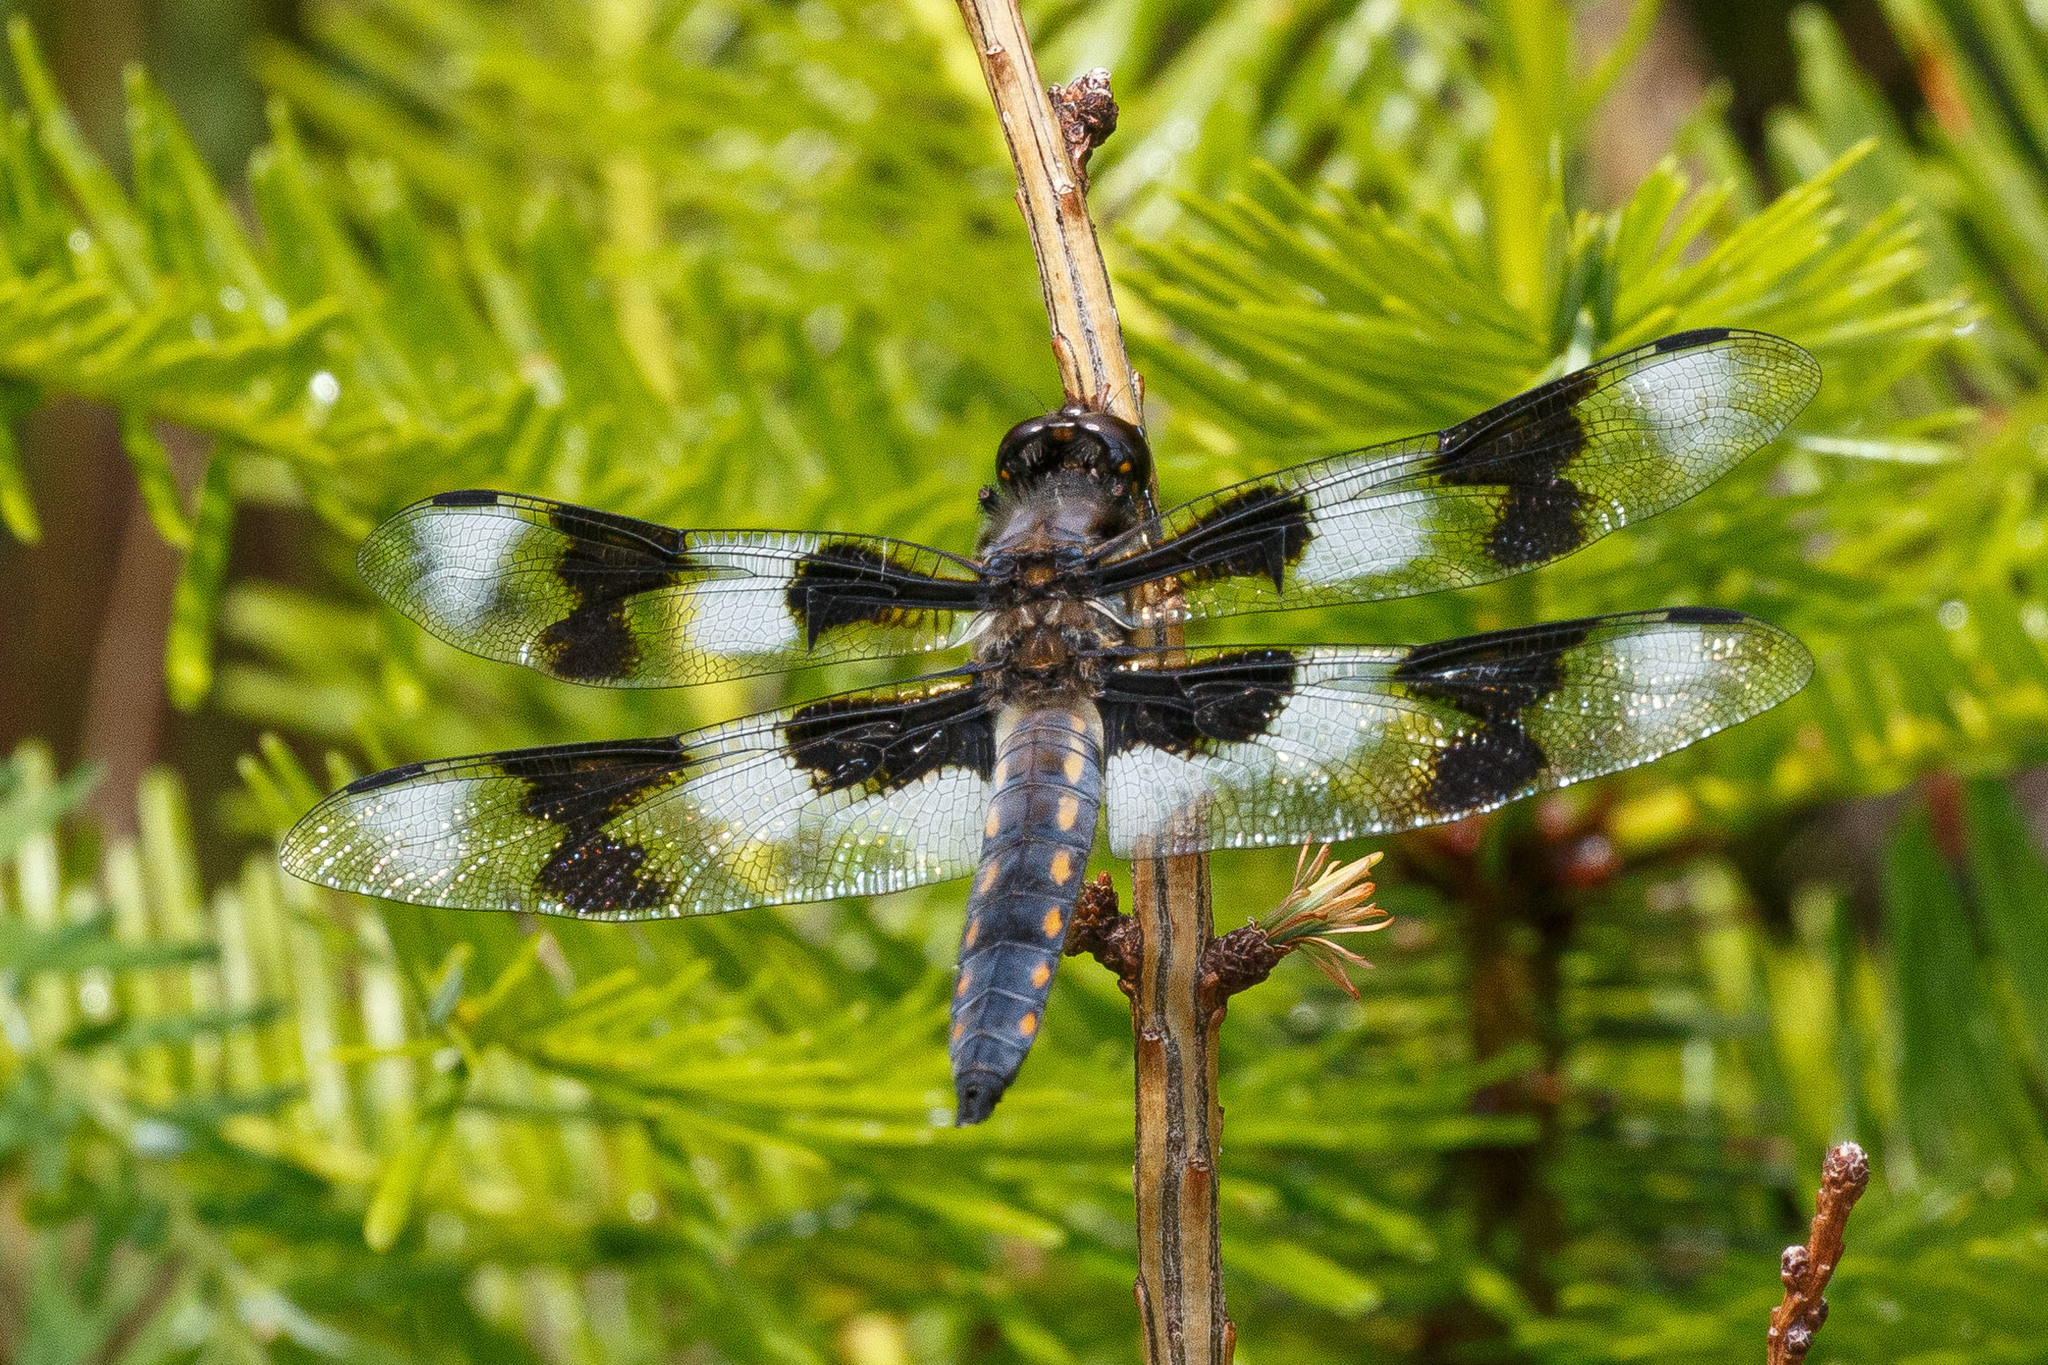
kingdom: Animalia
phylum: Arthropoda
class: Insecta
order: Odonata
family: Libellulidae
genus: Libellula
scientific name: Libellula forensis
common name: Eight-spotted skimmer
